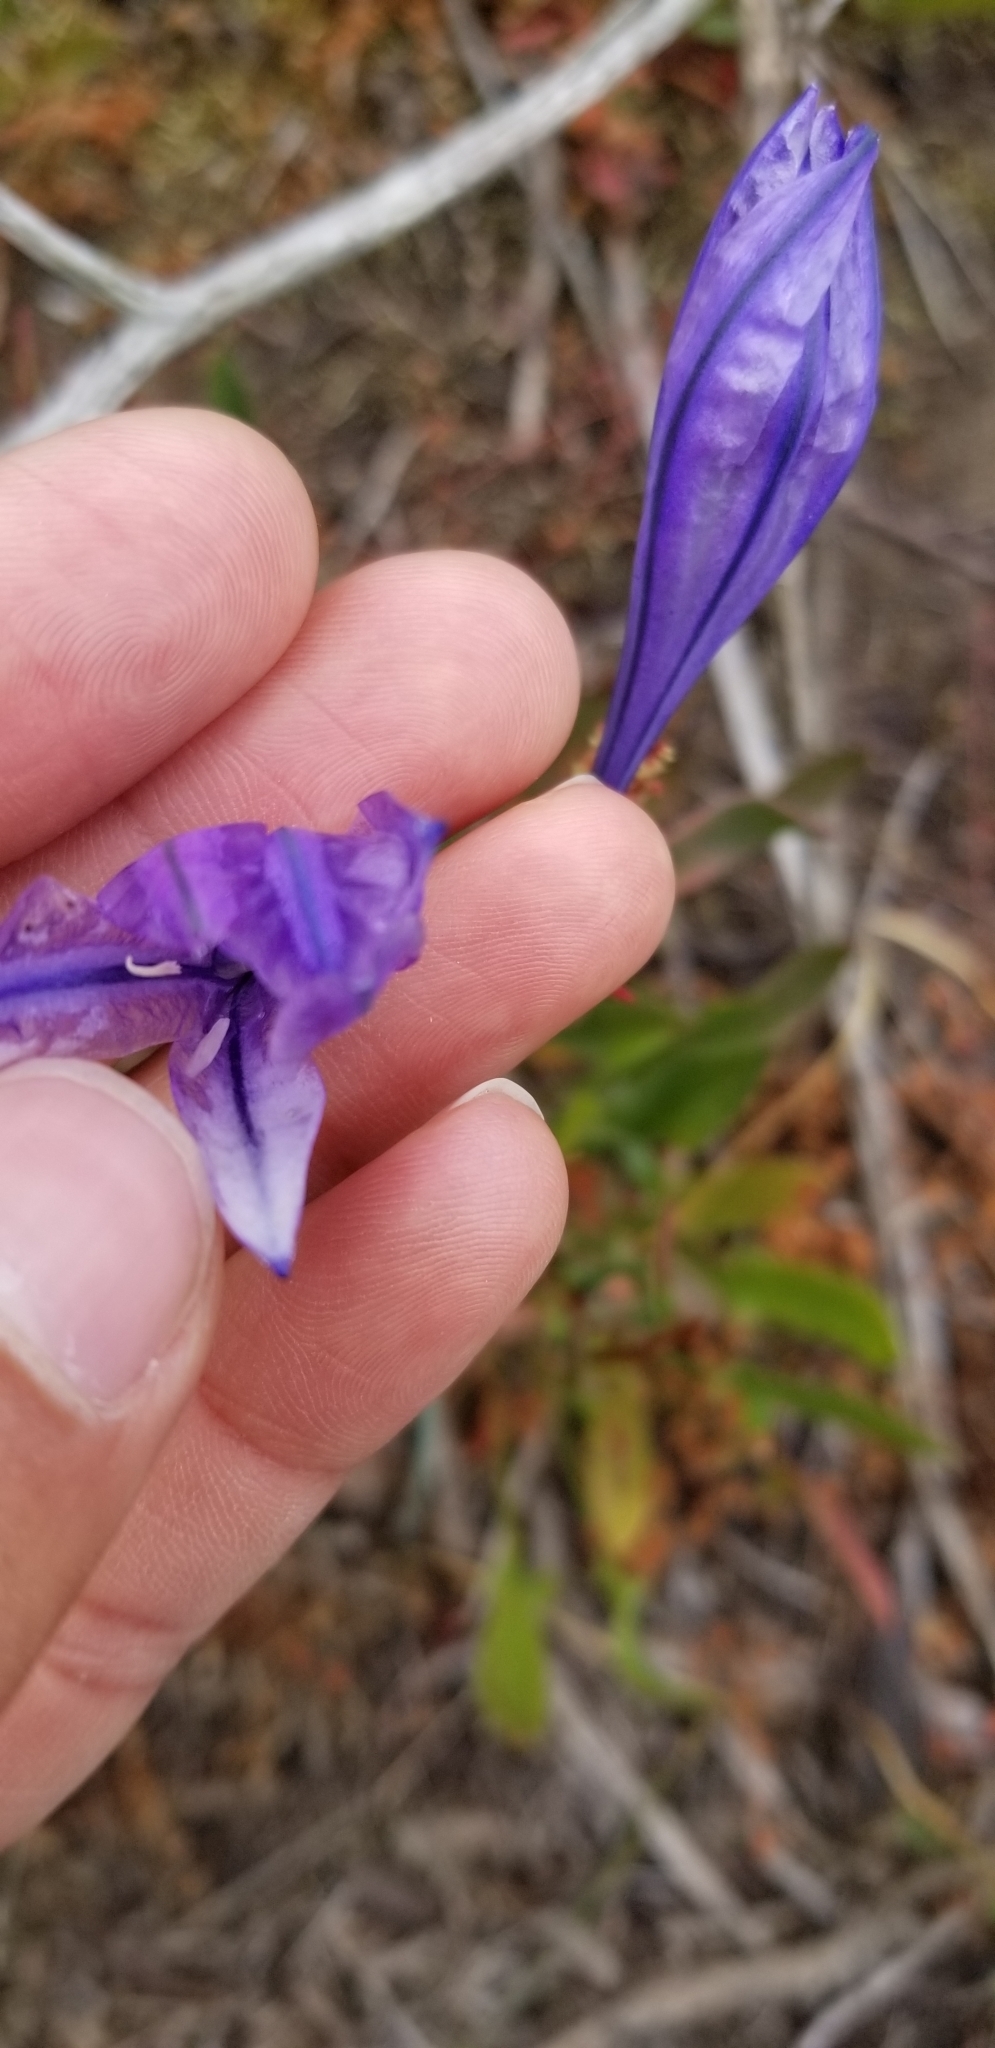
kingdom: Plantae
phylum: Tracheophyta
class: Liliopsida
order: Asparagales
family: Asparagaceae
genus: Triteleia
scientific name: Triteleia laxa
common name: Triplet-lily
